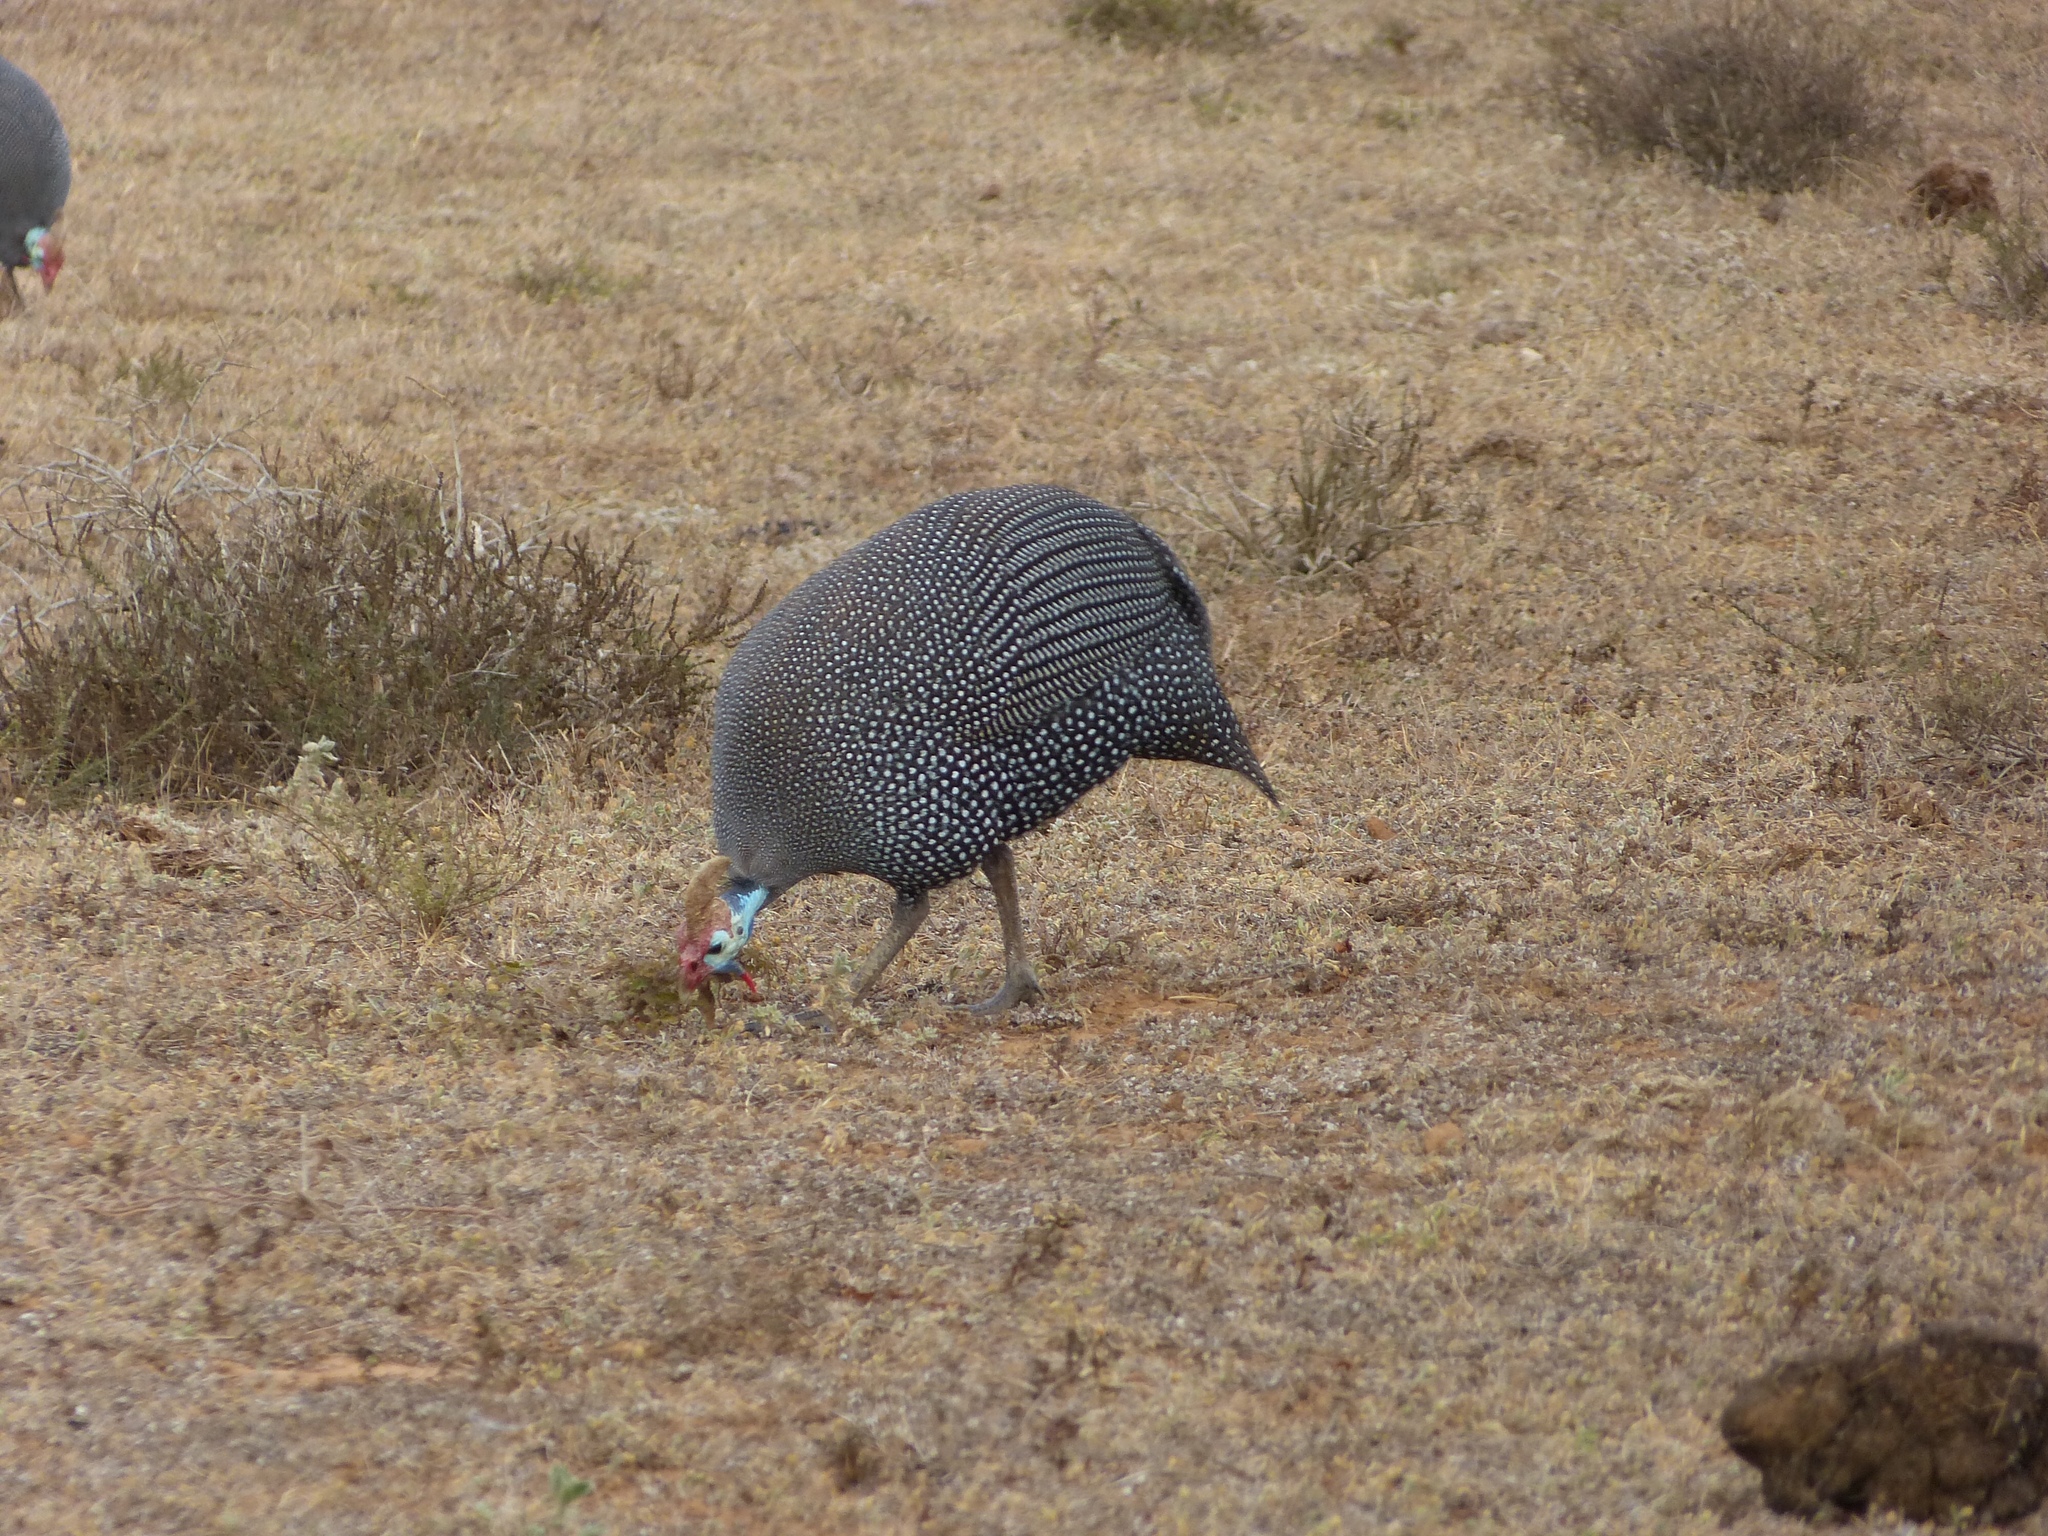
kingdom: Animalia
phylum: Chordata
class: Aves
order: Galliformes
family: Numididae
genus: Numida
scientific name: Numida meleagris
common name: Helmeted guineafowl
